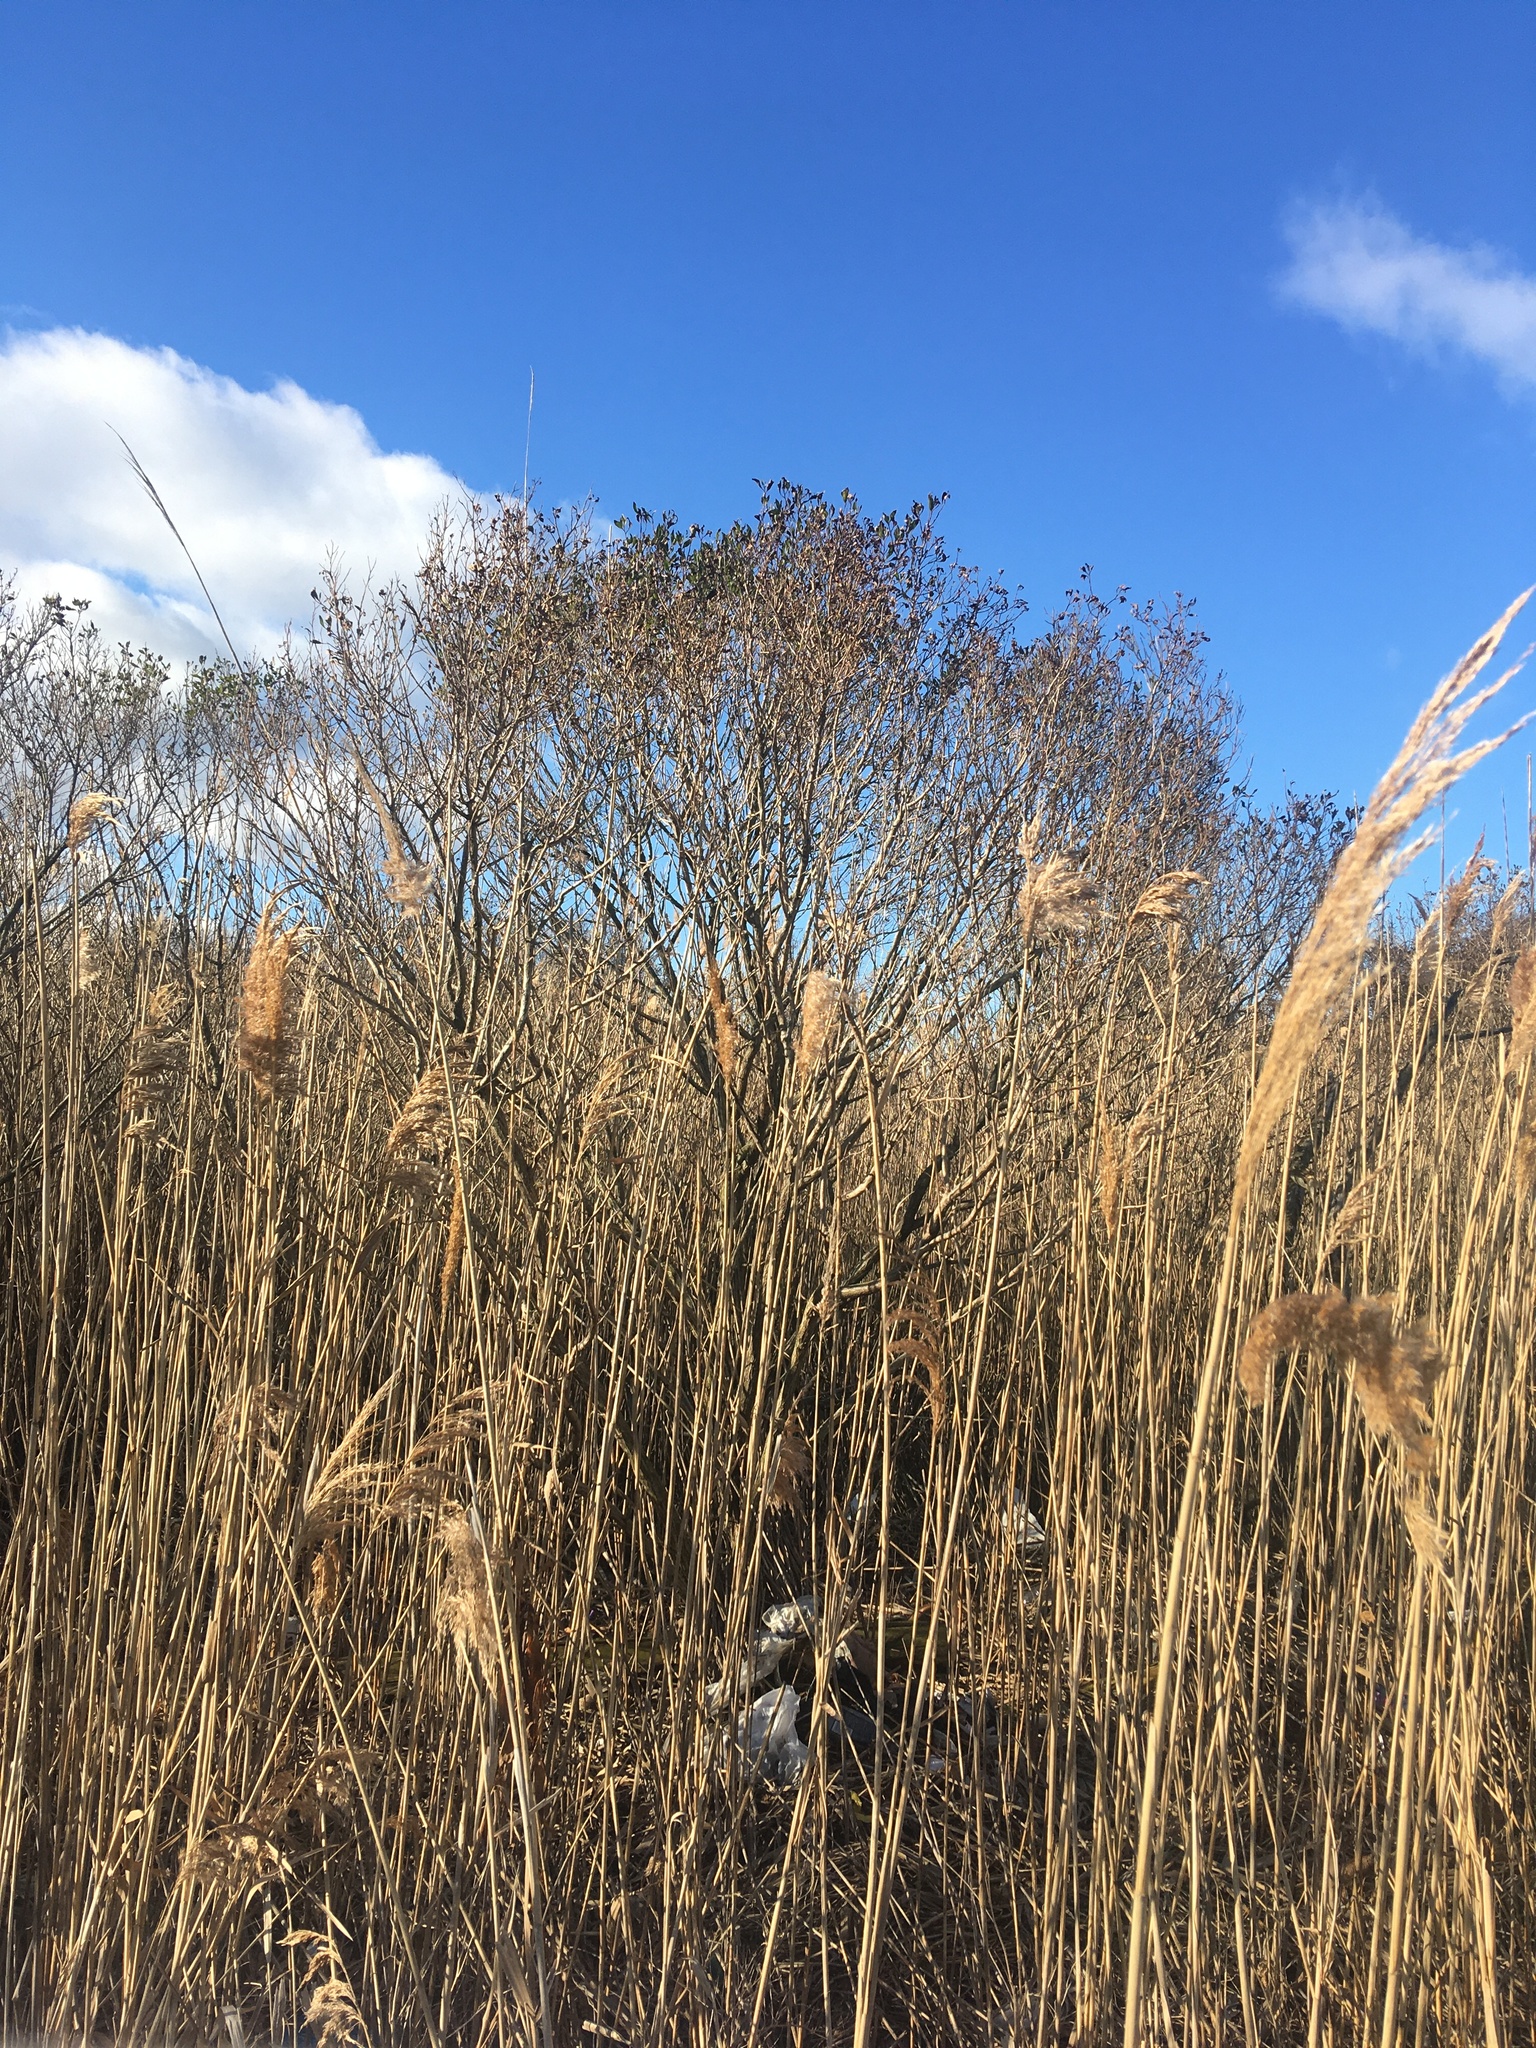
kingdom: Plantae
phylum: Tracheophyta
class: Magnoliopsida
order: Asterales
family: Asteraceae
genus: Baccharis
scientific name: Baccharis halimifolia
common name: Eastern baccharis
